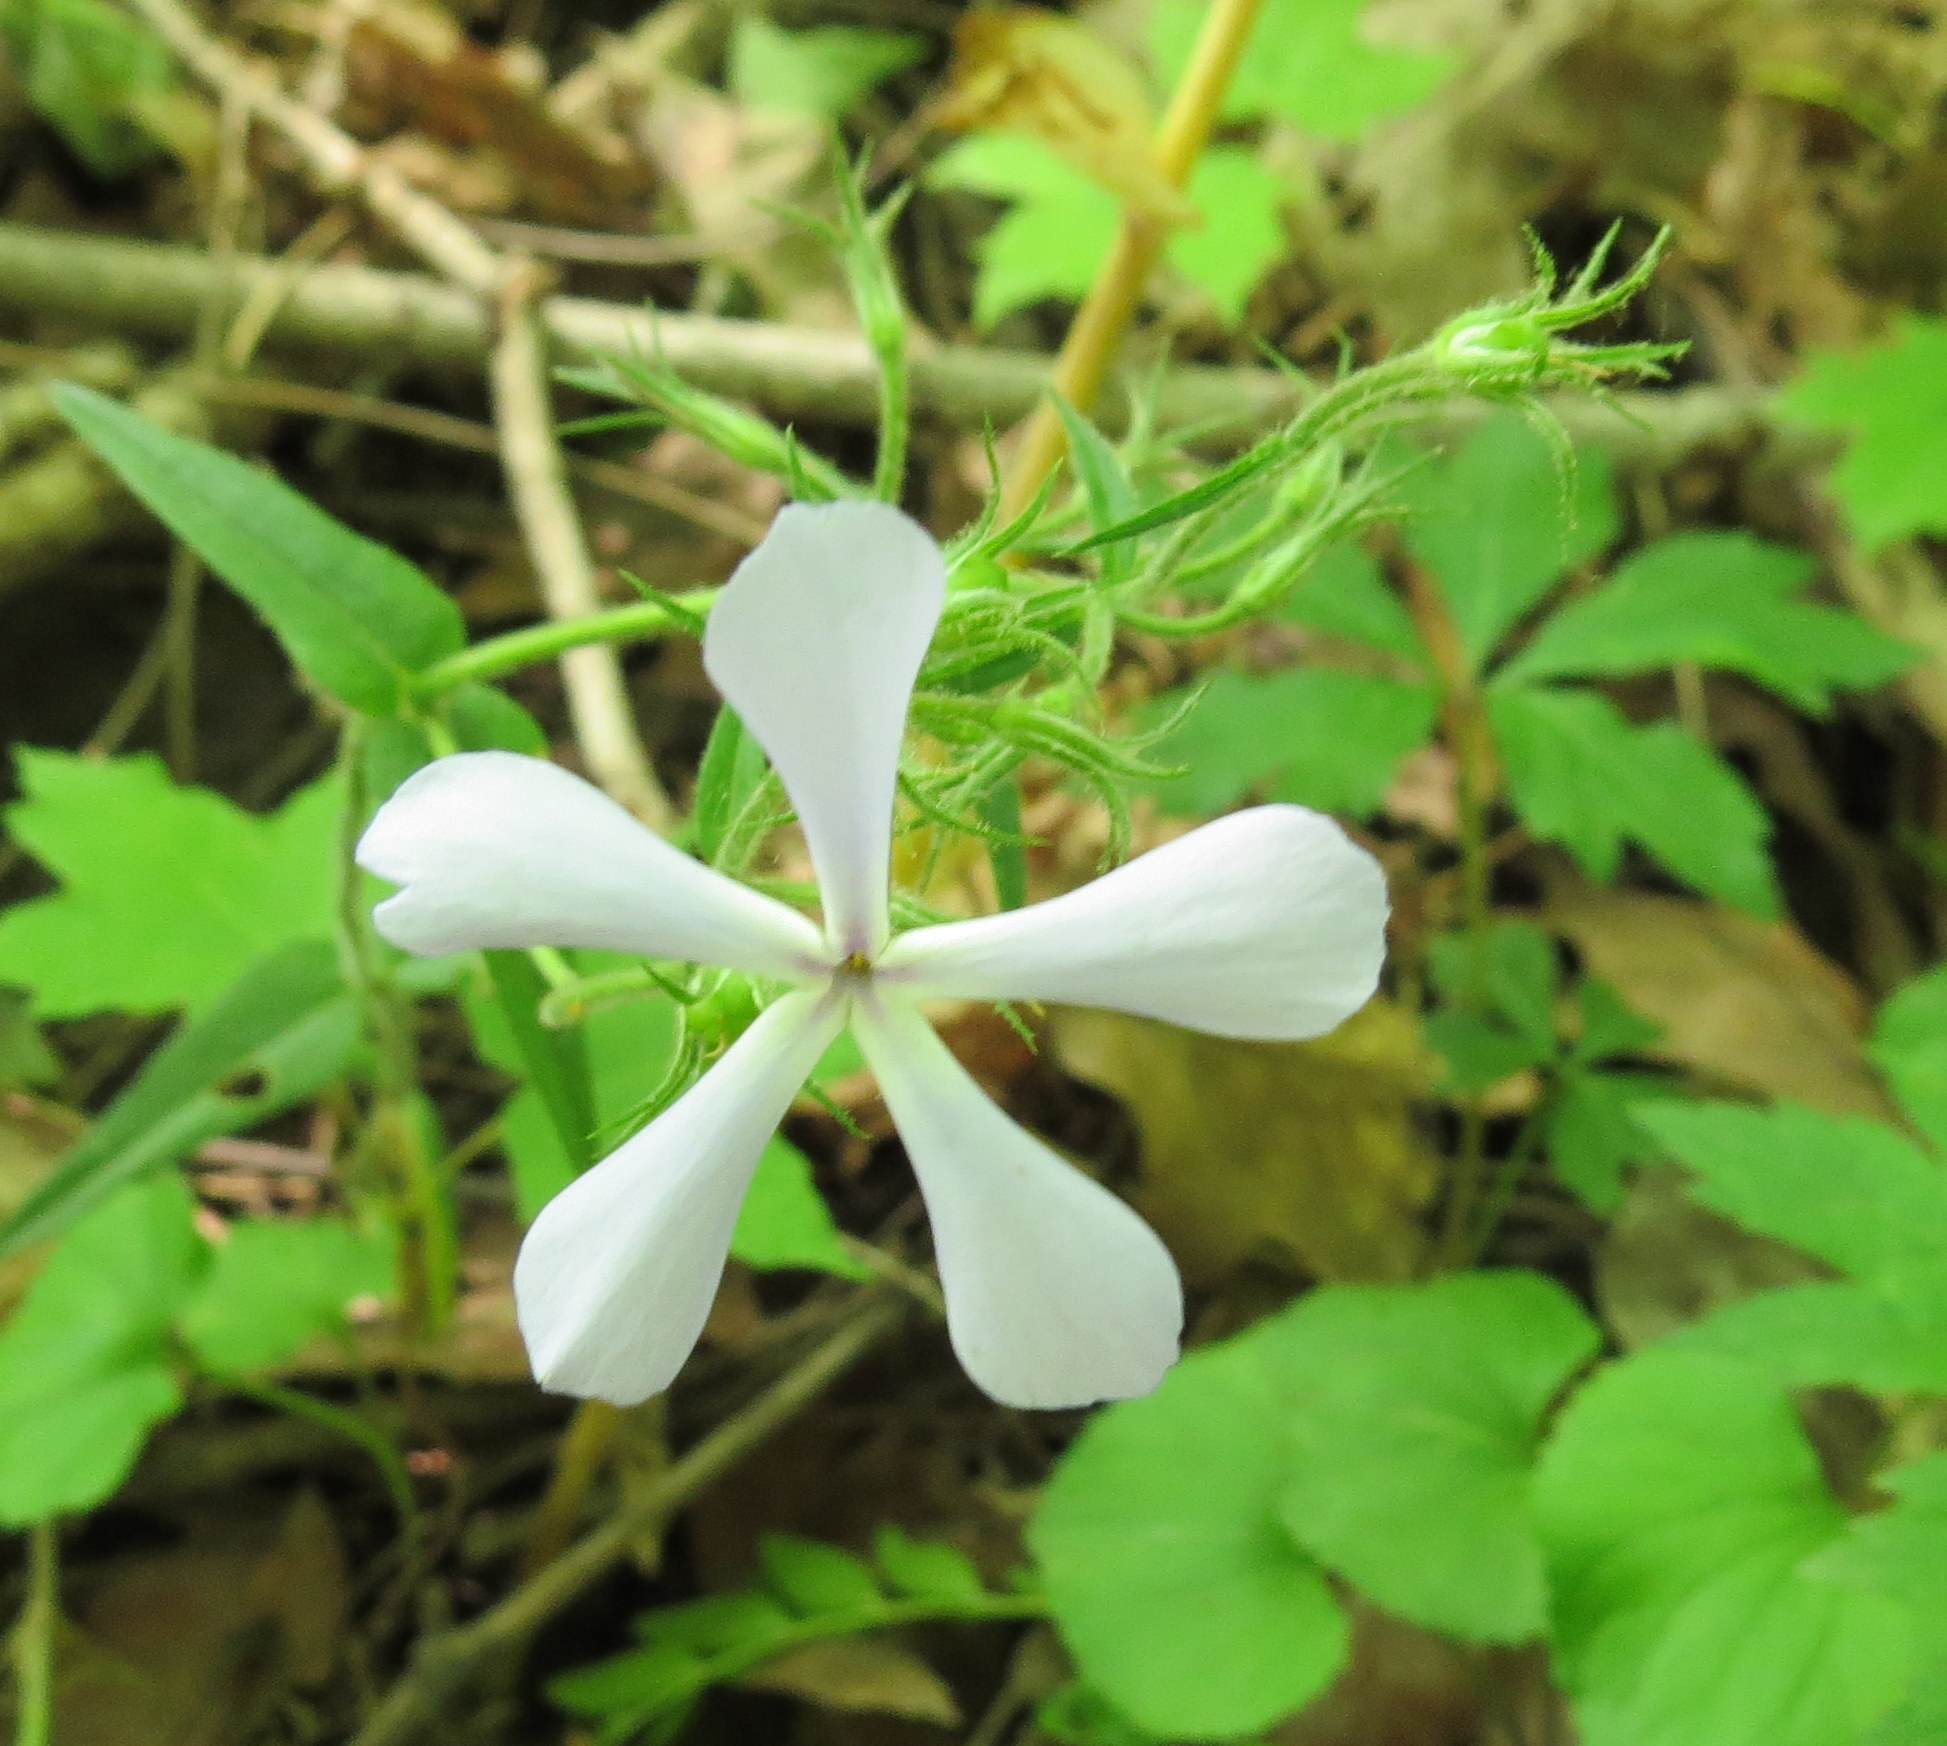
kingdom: Plantae
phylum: Tracheophyta
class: Magnoliopsida
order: Ericales
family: Polemoniaceae
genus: Phlox
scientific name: Phlox divaricata
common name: Blue phlox
